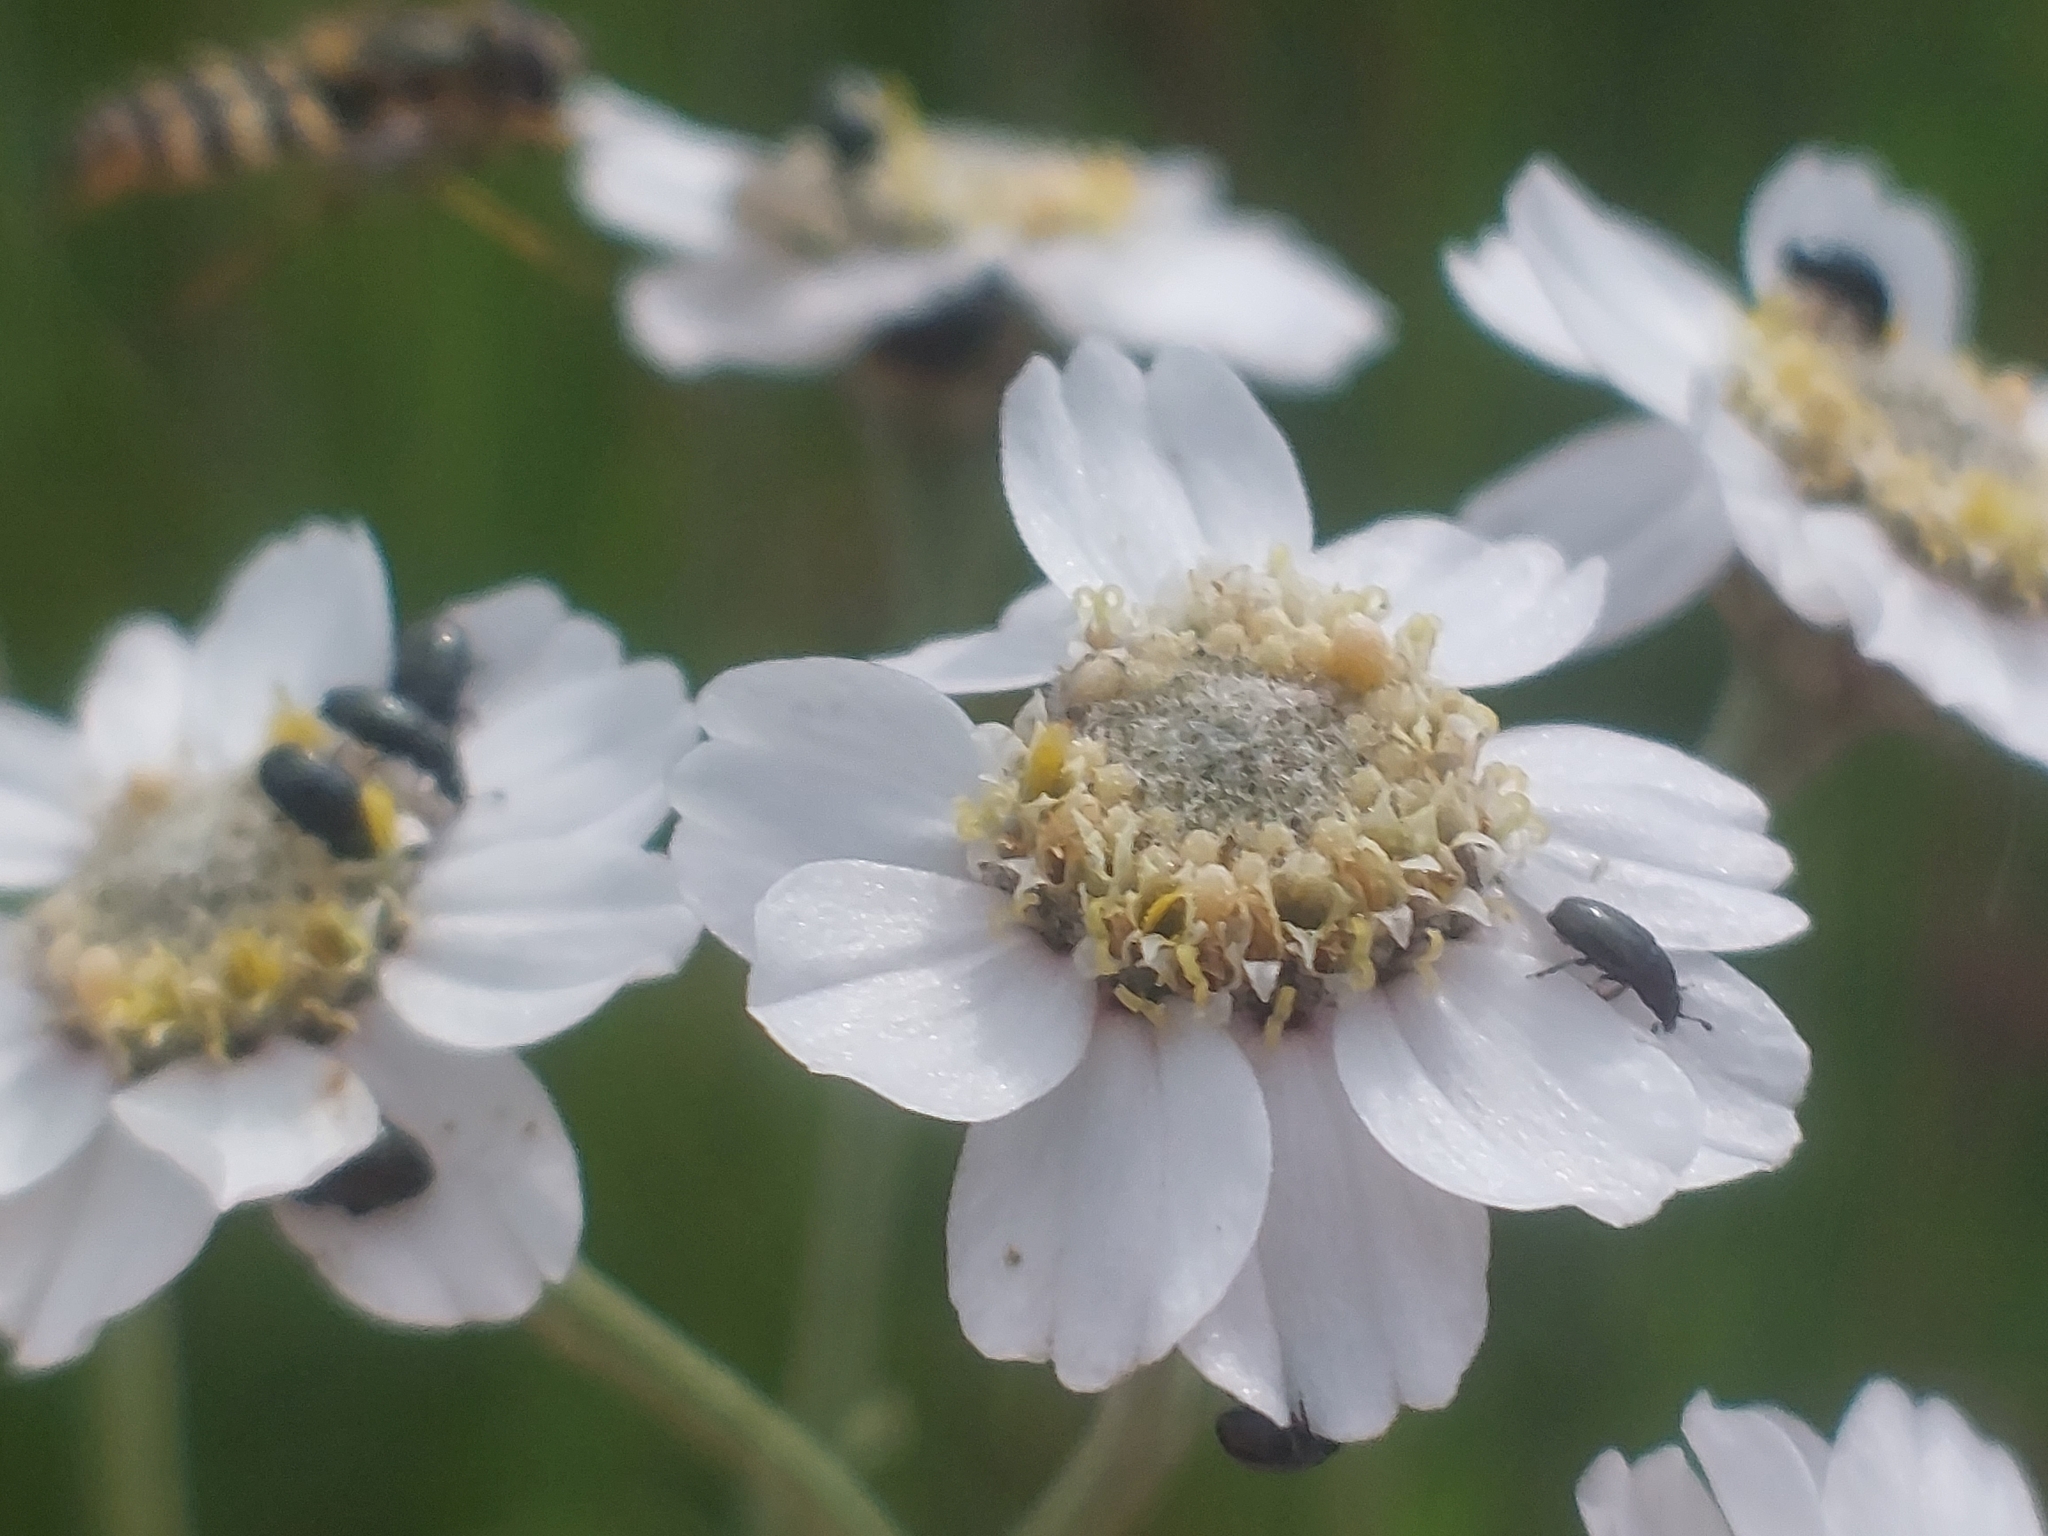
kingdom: Plantae
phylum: Tracheophyta
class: Magnoliopsida
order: Asterales
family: Asteraceae
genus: Achillea
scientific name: Achillea ptarmica
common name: Sneezeweed
